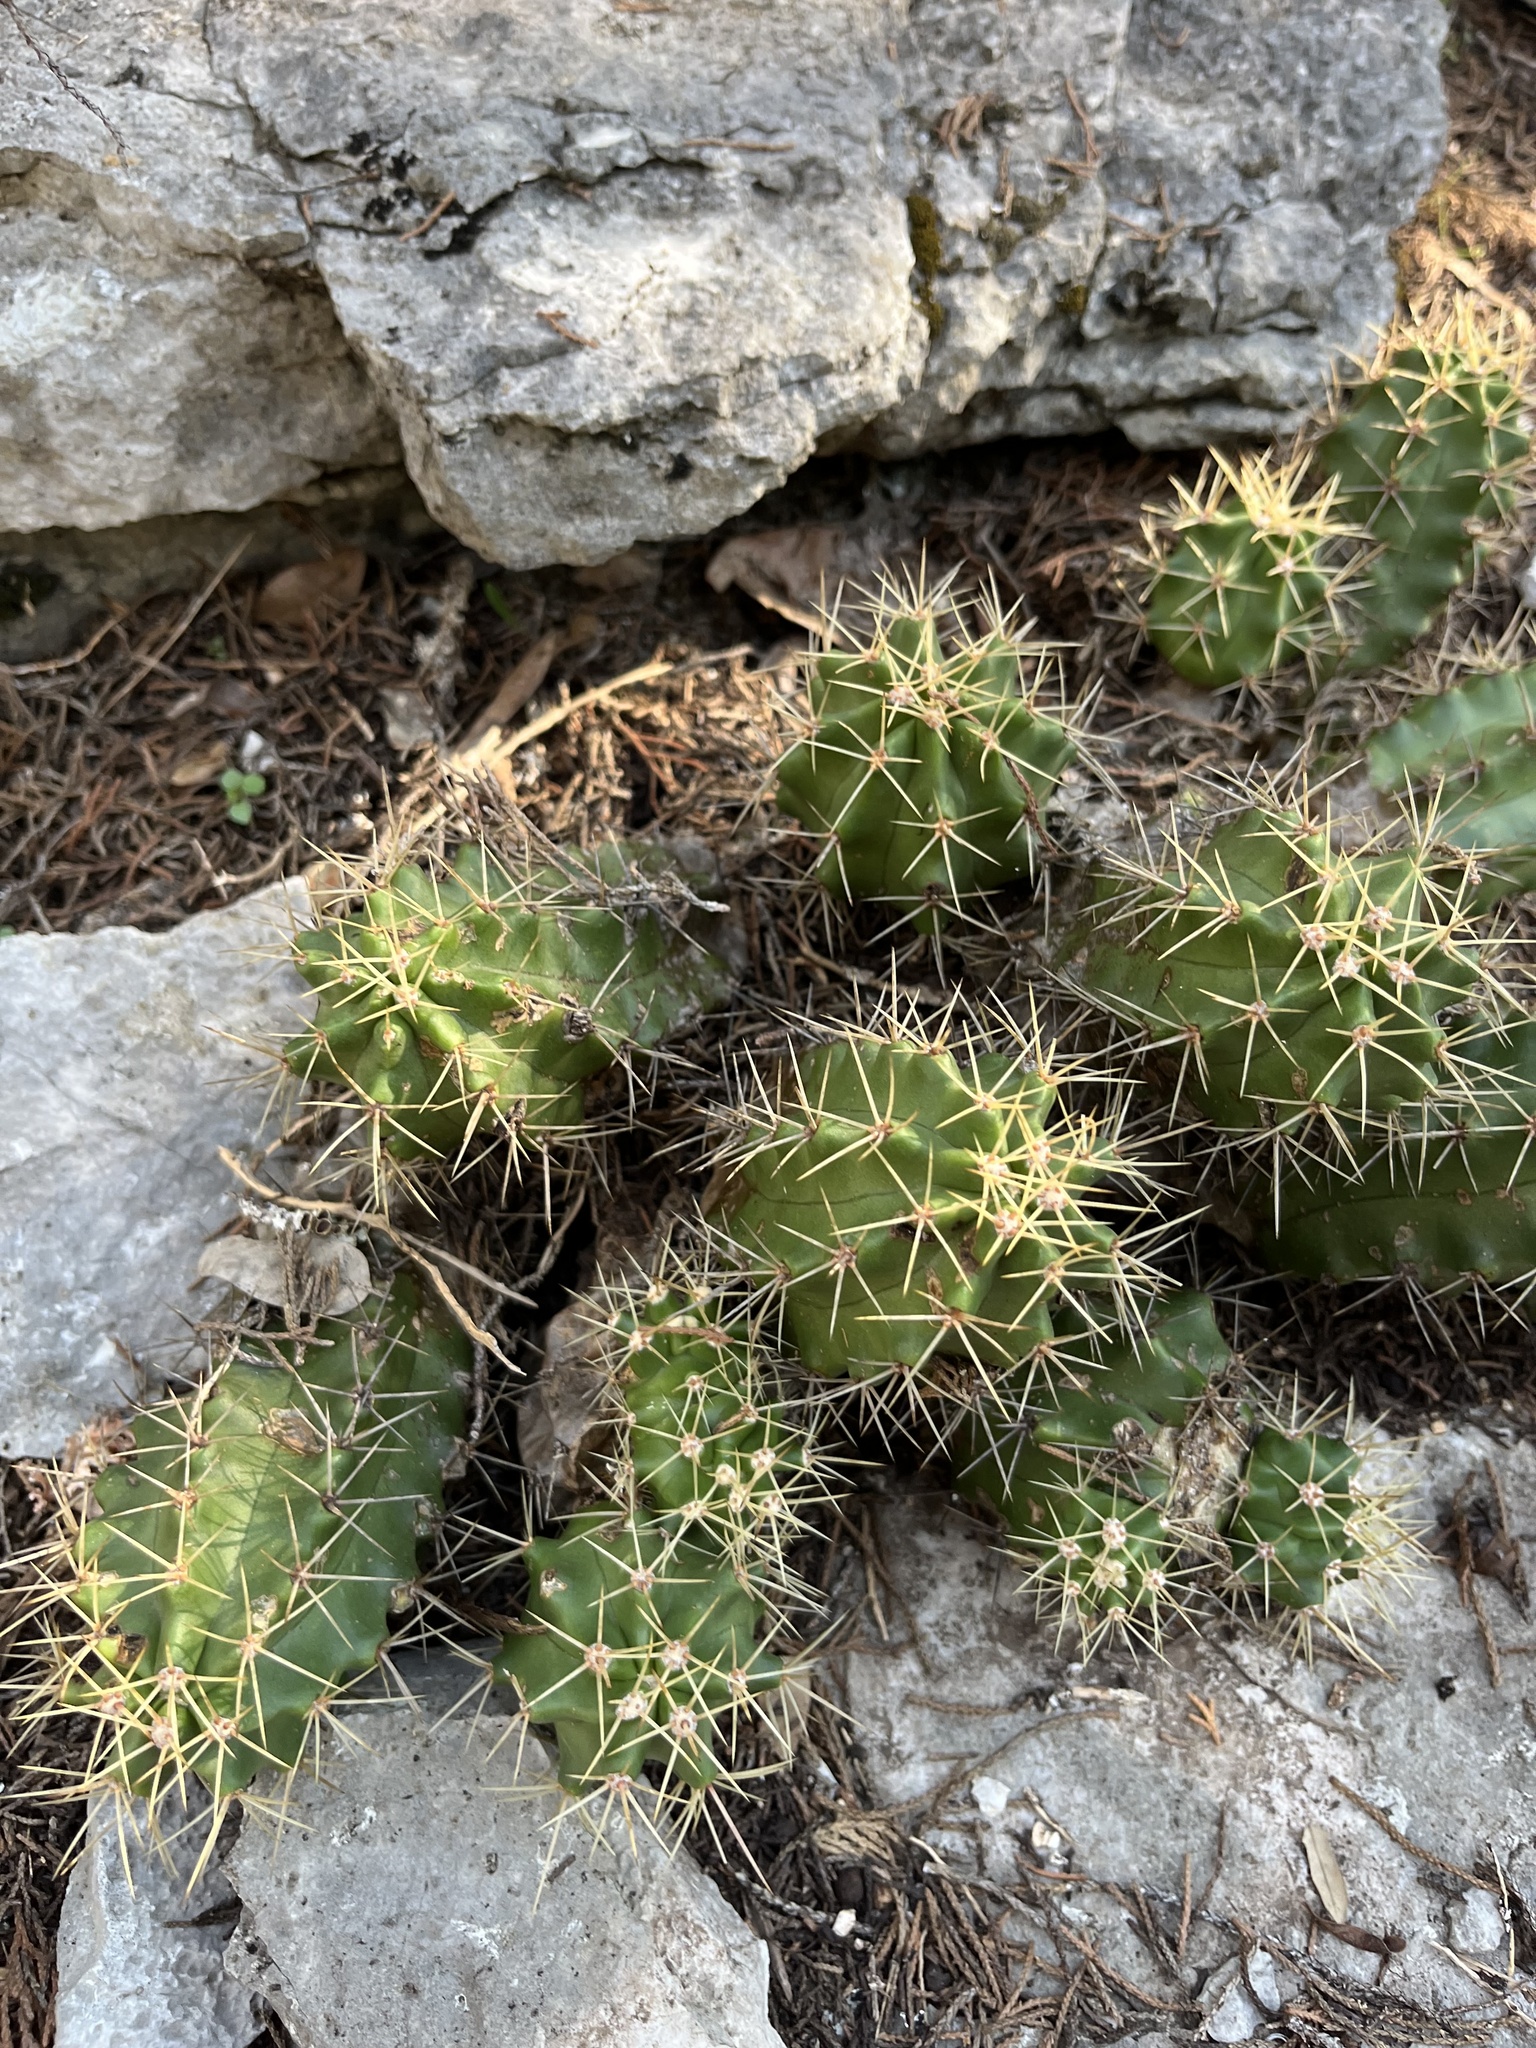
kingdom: Plantae
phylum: Tracheophyta
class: Magnoliopsida
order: Caryophyllales
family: Cactaceae
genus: Echinocereus
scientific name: Echinocereus coccineus
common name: Scarlet hedgehog cactus
